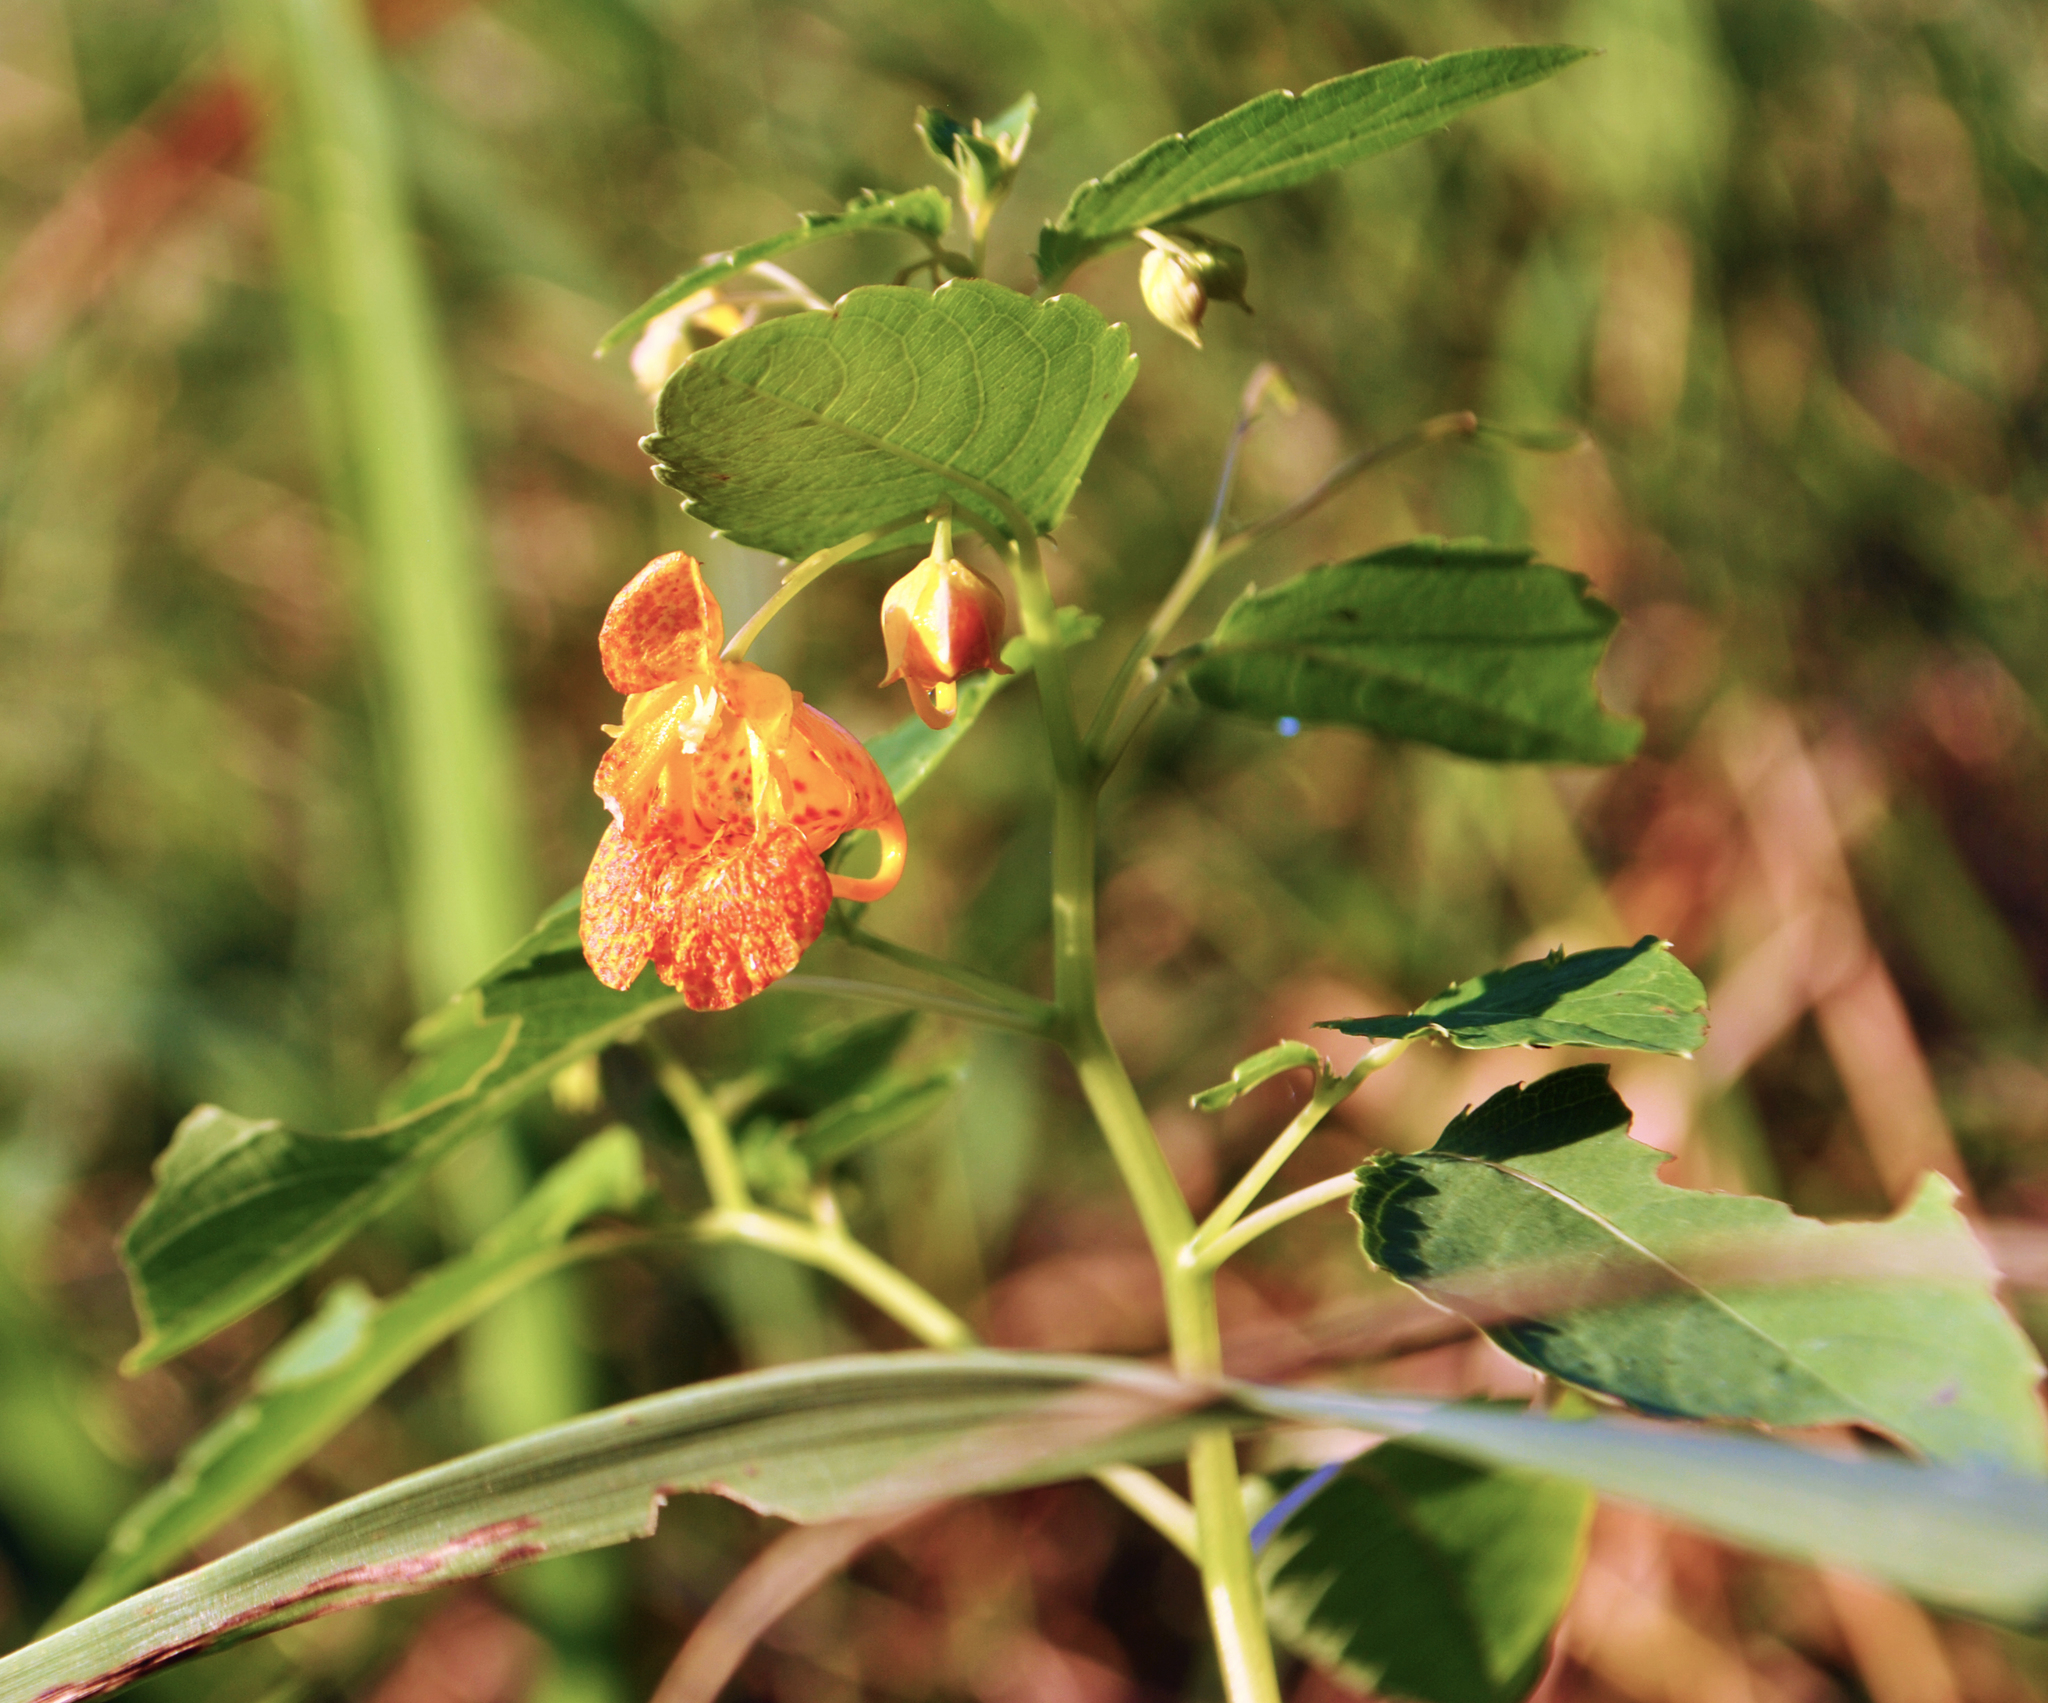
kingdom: Plantae
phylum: Tracheophyta
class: Magnoliopsida
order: Ericales
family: Balsaminaceae
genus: Impatiens
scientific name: Impatiens capensis
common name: Orange balsam
